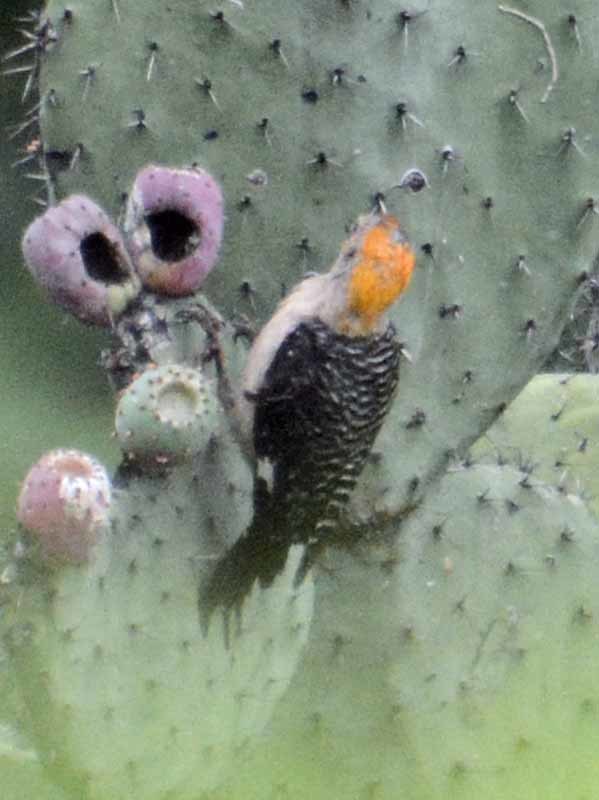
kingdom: Animalia
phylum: Chordata
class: Aves
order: Piciformes
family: Picidae
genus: Melanerpes
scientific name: Melanerpes aurifrons
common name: Golden-fronted woodpecker
